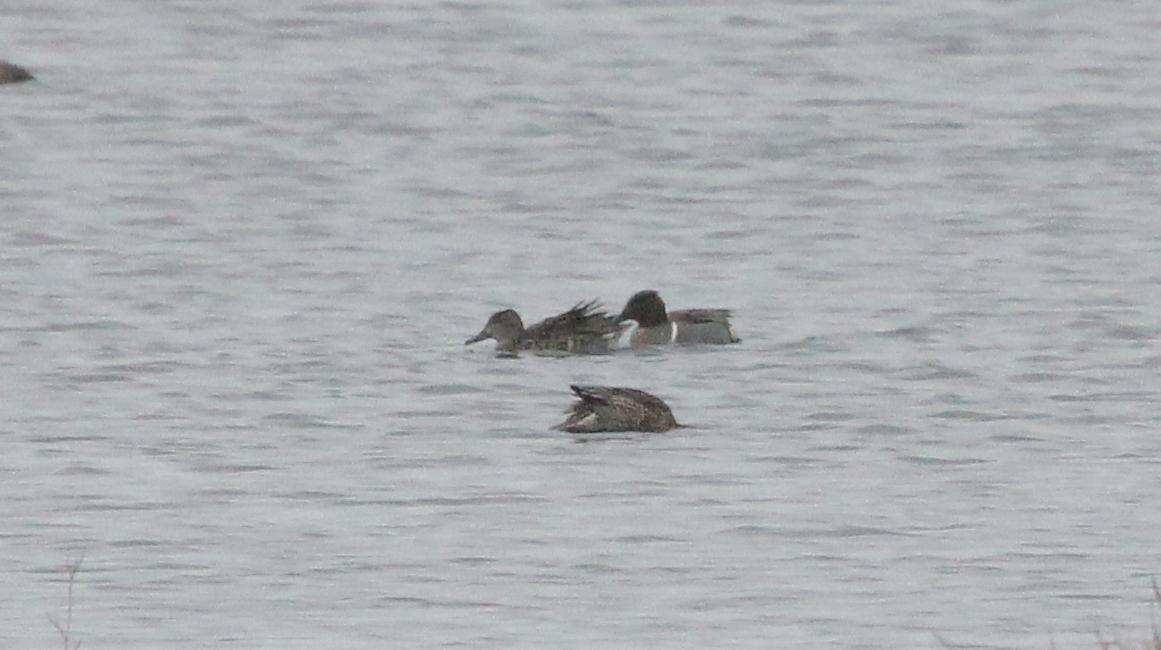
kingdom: Animalia
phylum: Chordata
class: Aves
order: Anseriformes
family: Anatidae
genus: Anas
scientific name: Anas crecca
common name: Eurasian teal
